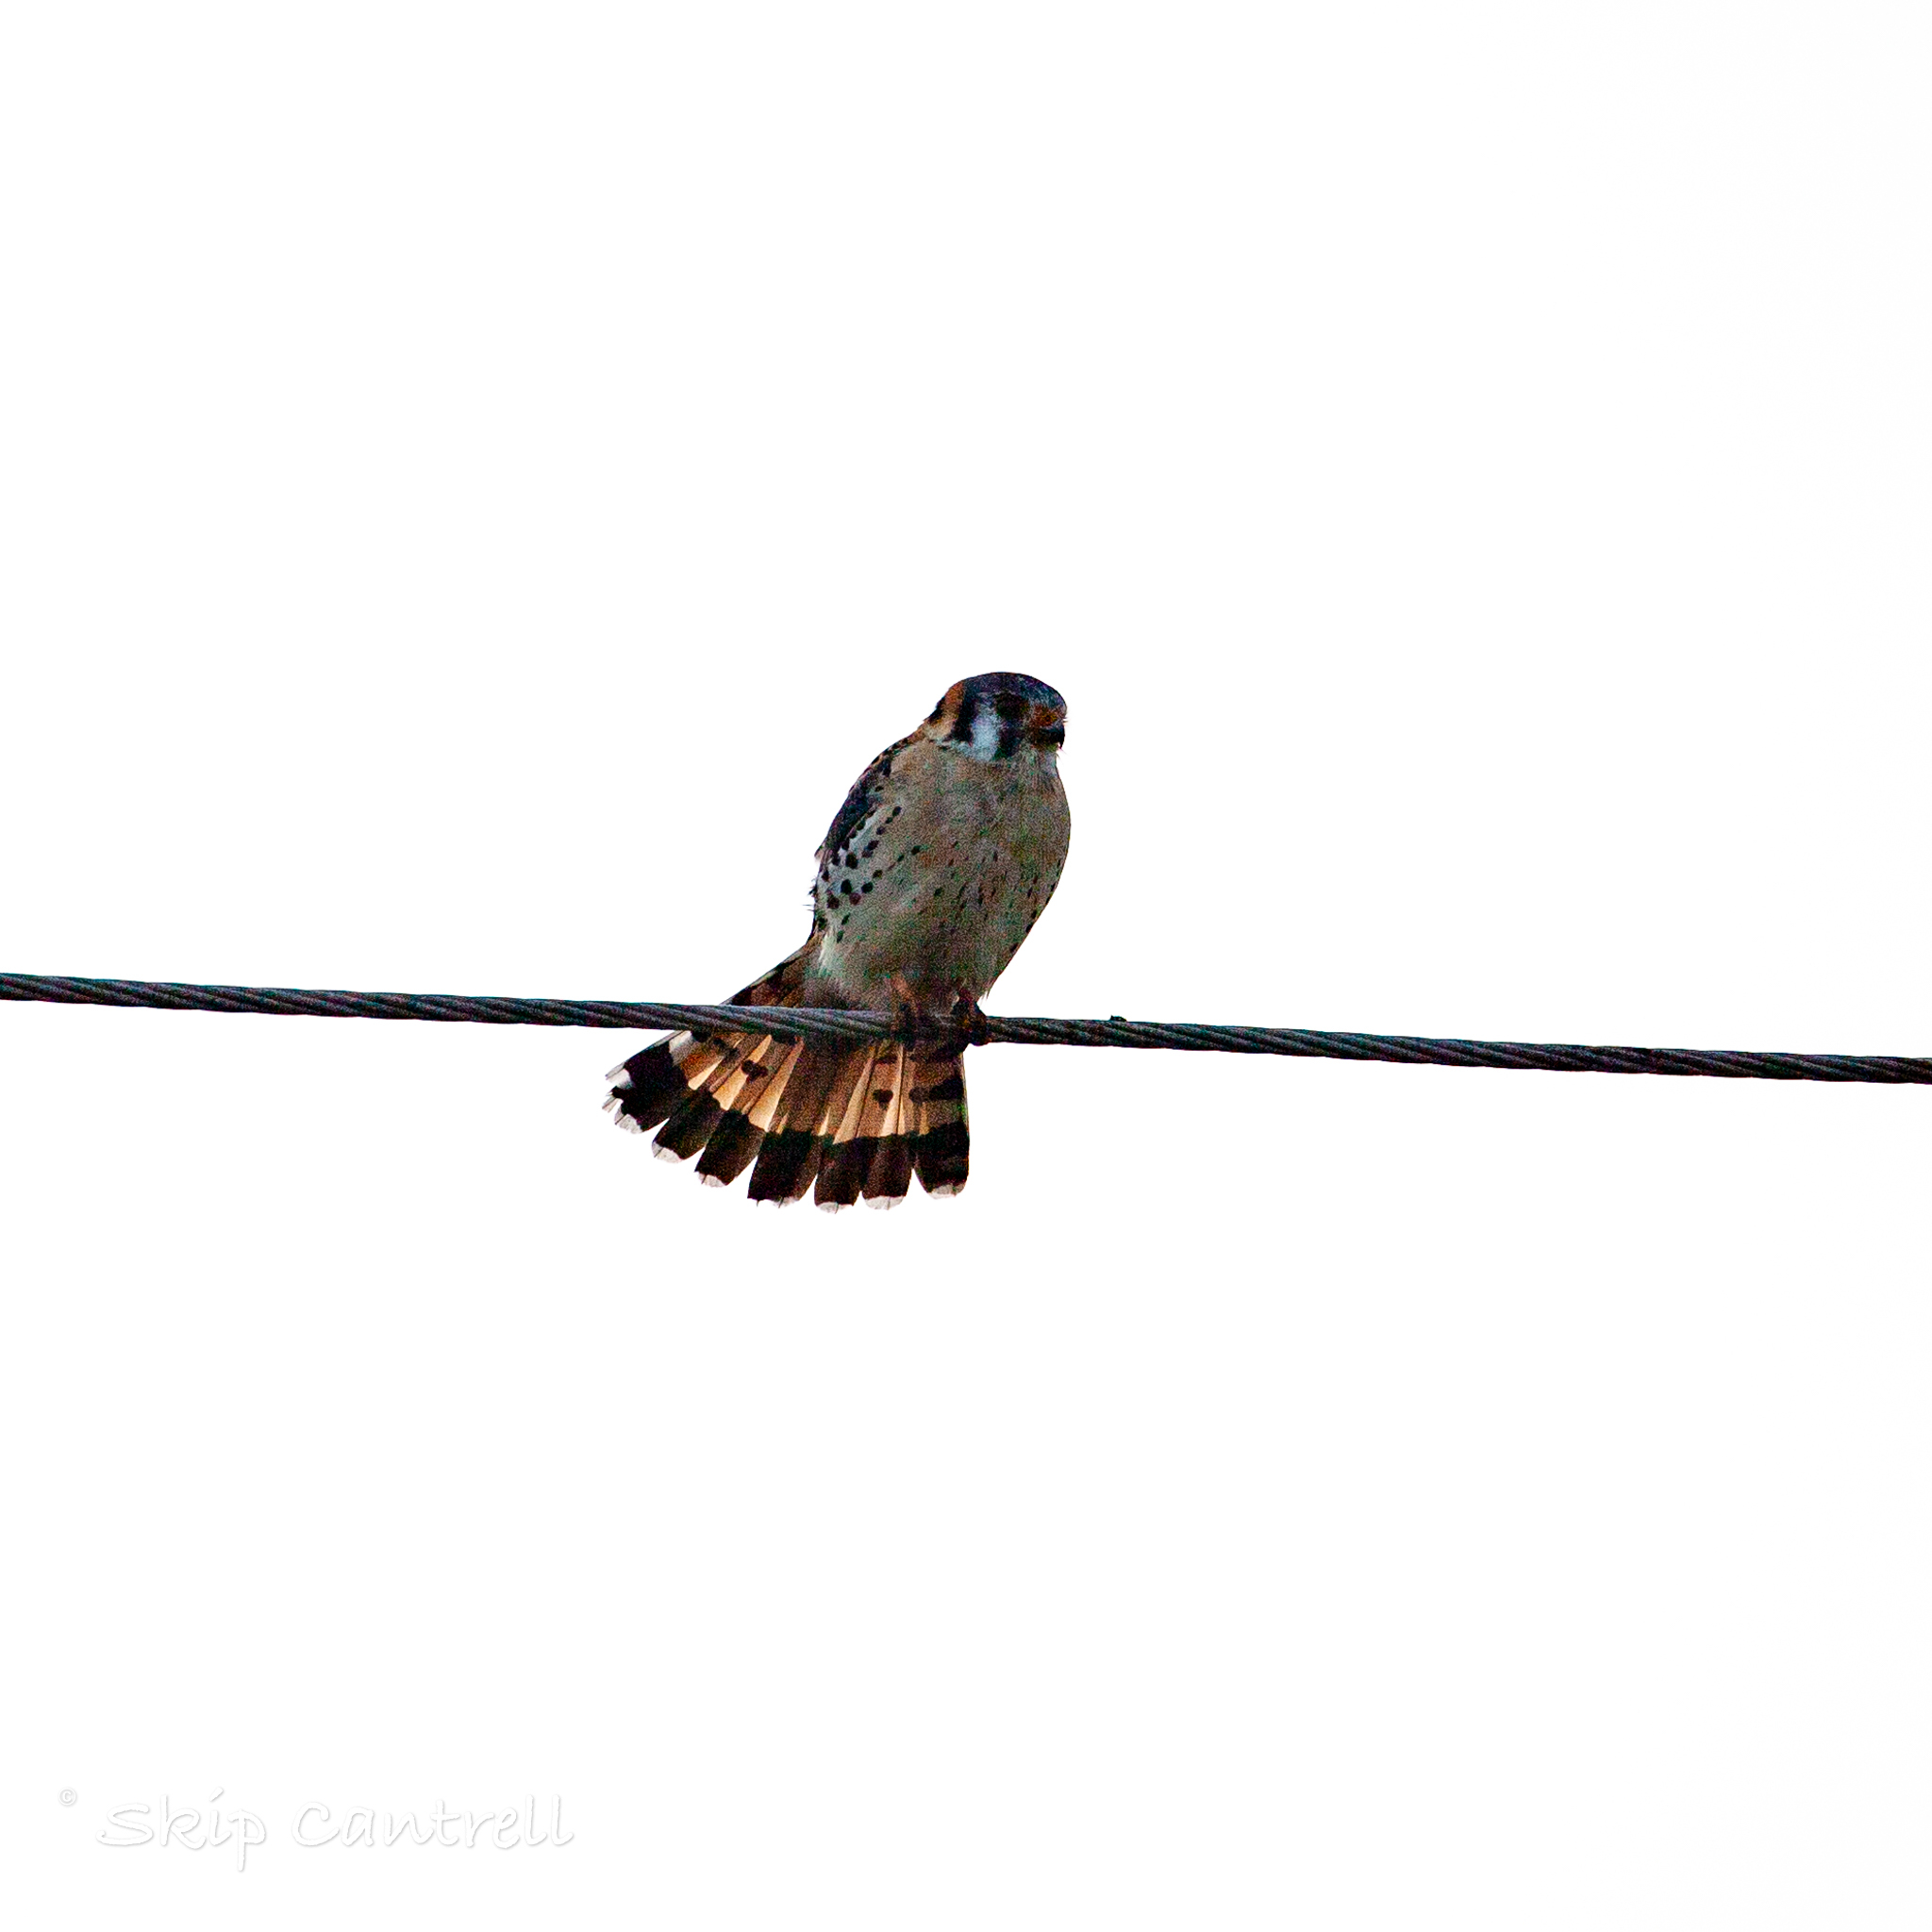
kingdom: Animalia
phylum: Chordata
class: Aves
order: Falconiformes
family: Falconidae
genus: Falco
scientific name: Falco sparverius
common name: American kestrel
